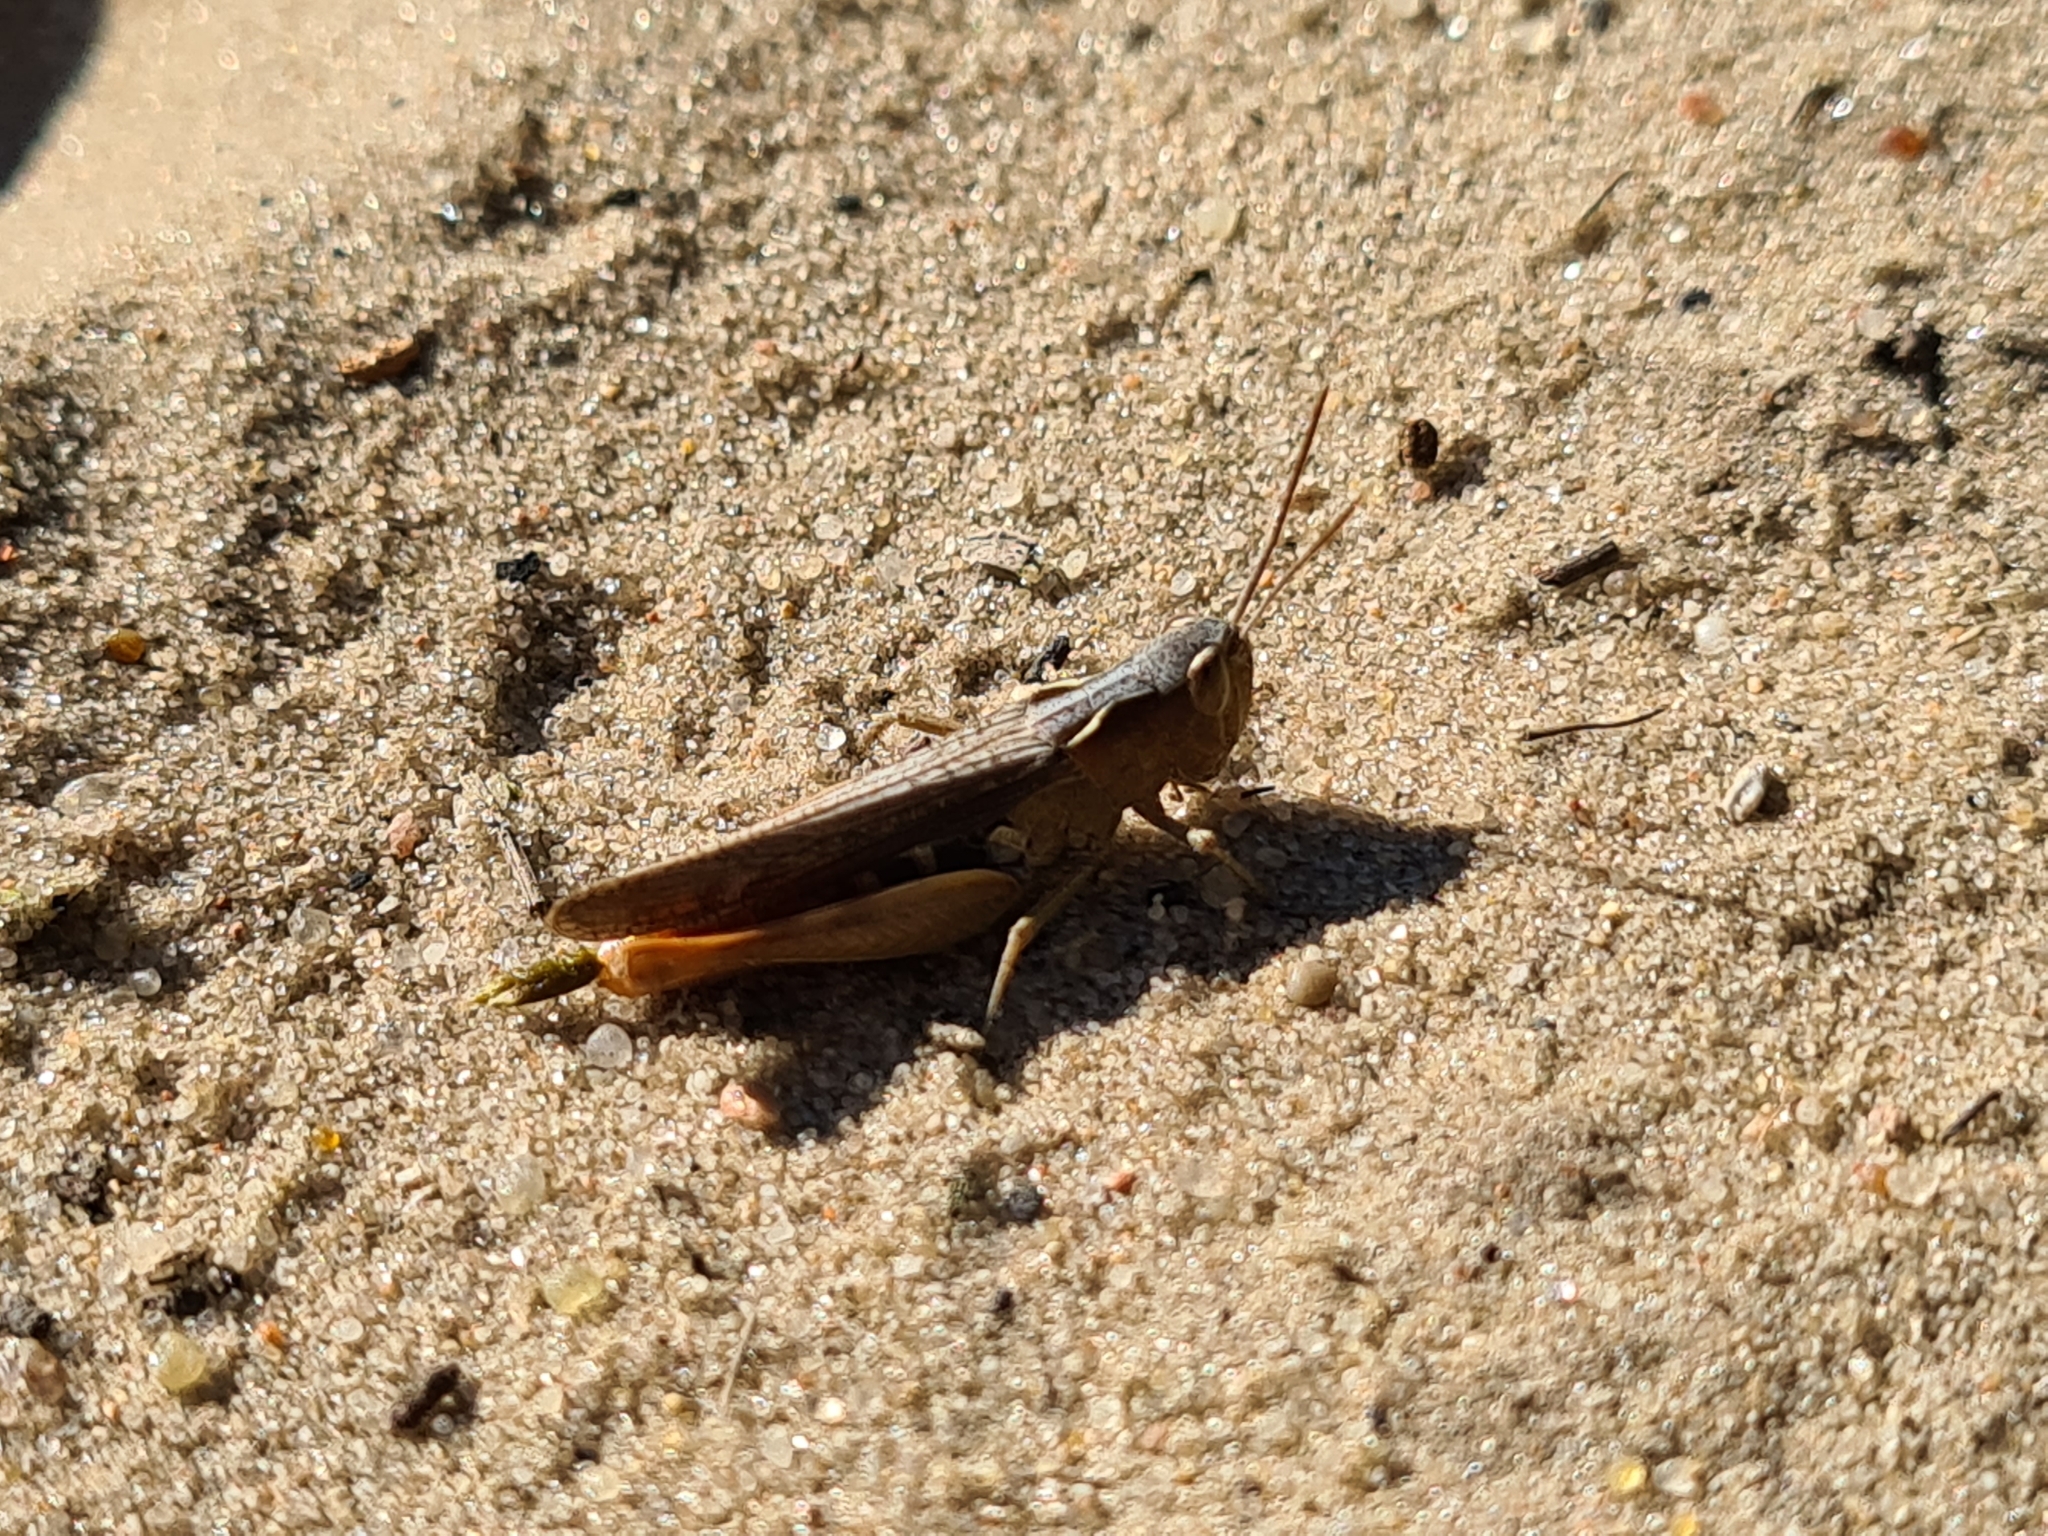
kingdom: Animalia
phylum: Arthropoda
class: Insecta
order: Orthoptera
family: Acrididae
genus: Chorthippus
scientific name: Chorthippus vagans
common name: Heath grasshopper
